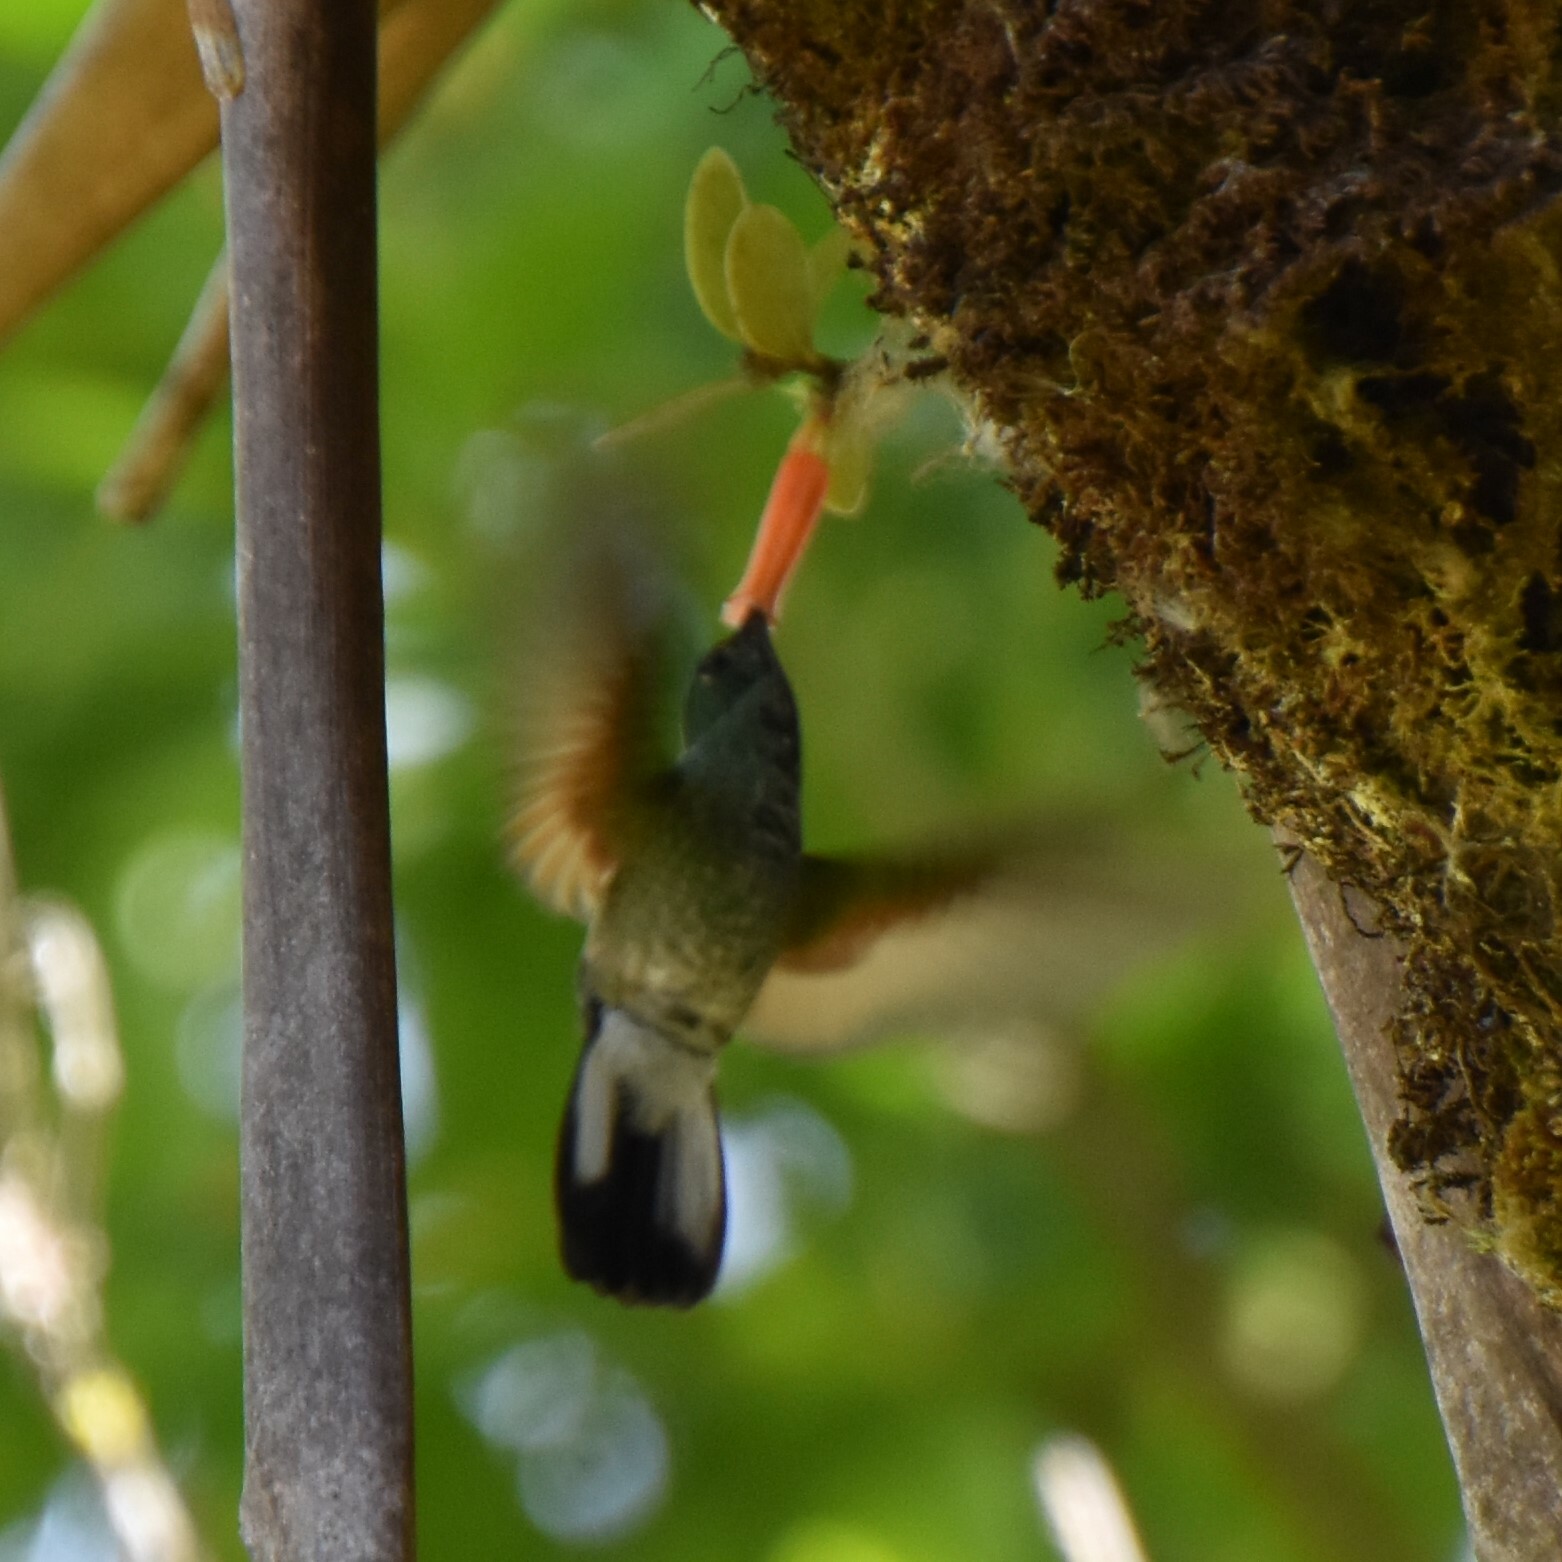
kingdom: Animalia
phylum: Chordata
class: Aves
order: Apodiformes
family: Trochilidae
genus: Eupherusa
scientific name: Eupherusa eximia
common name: Stripe-tailed hummingbird
